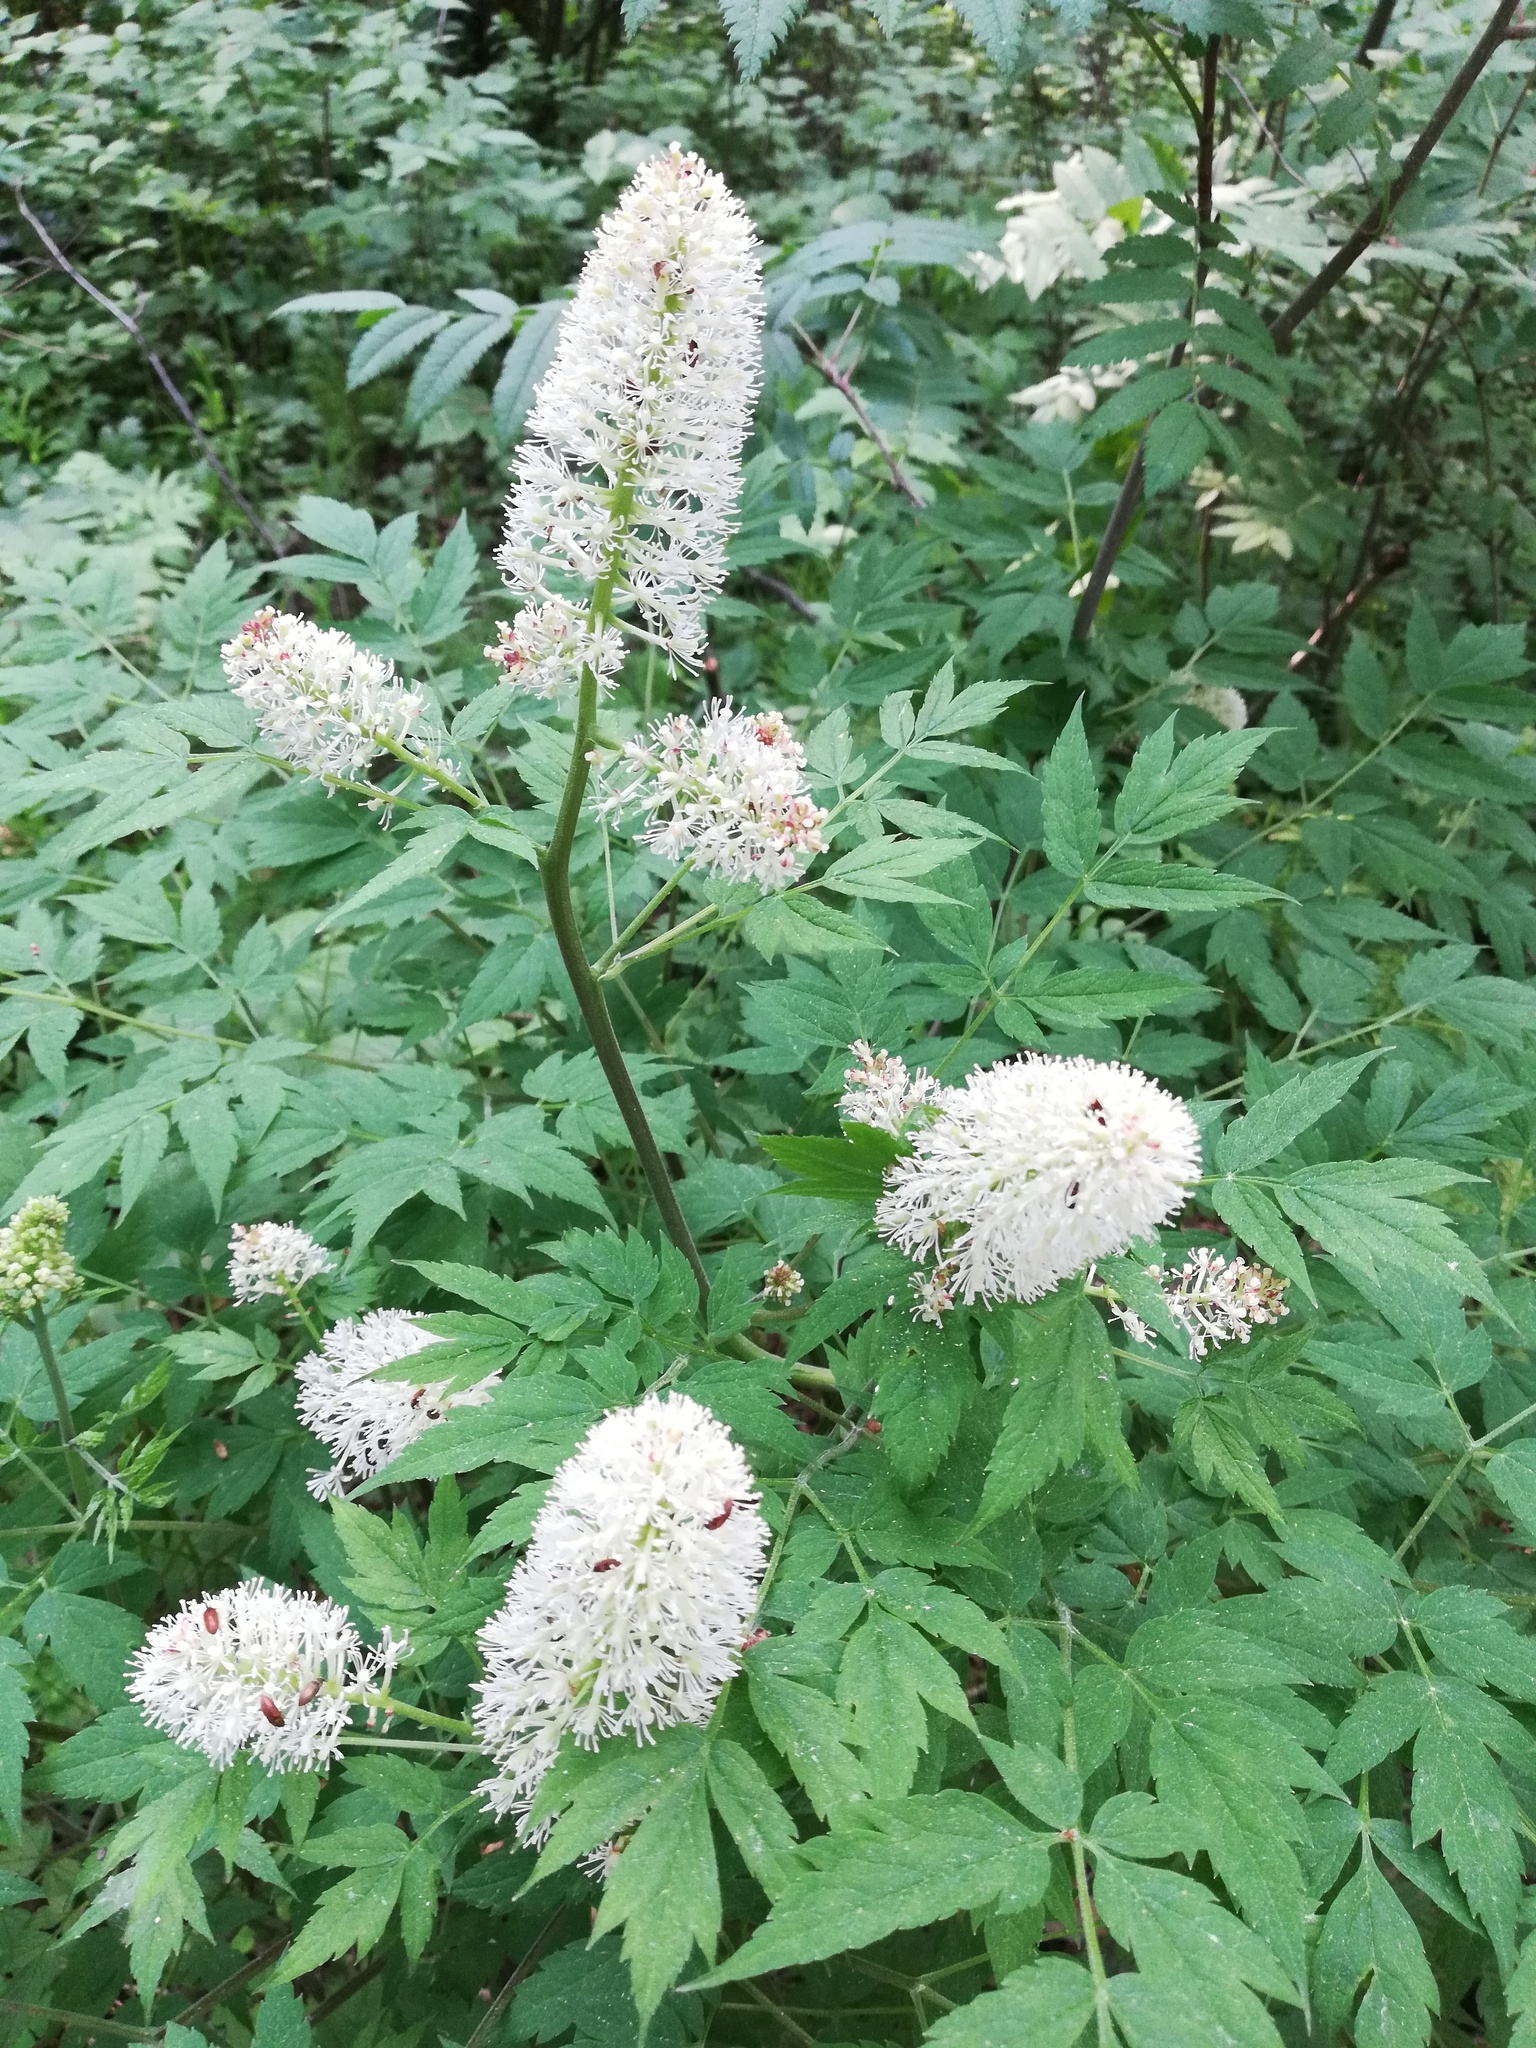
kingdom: Plantae
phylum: Tracheophyta
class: Magnoliopsida
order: Ranunculales
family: Ranunculaceae
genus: Actaea
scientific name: Actaea erythrocarpa
